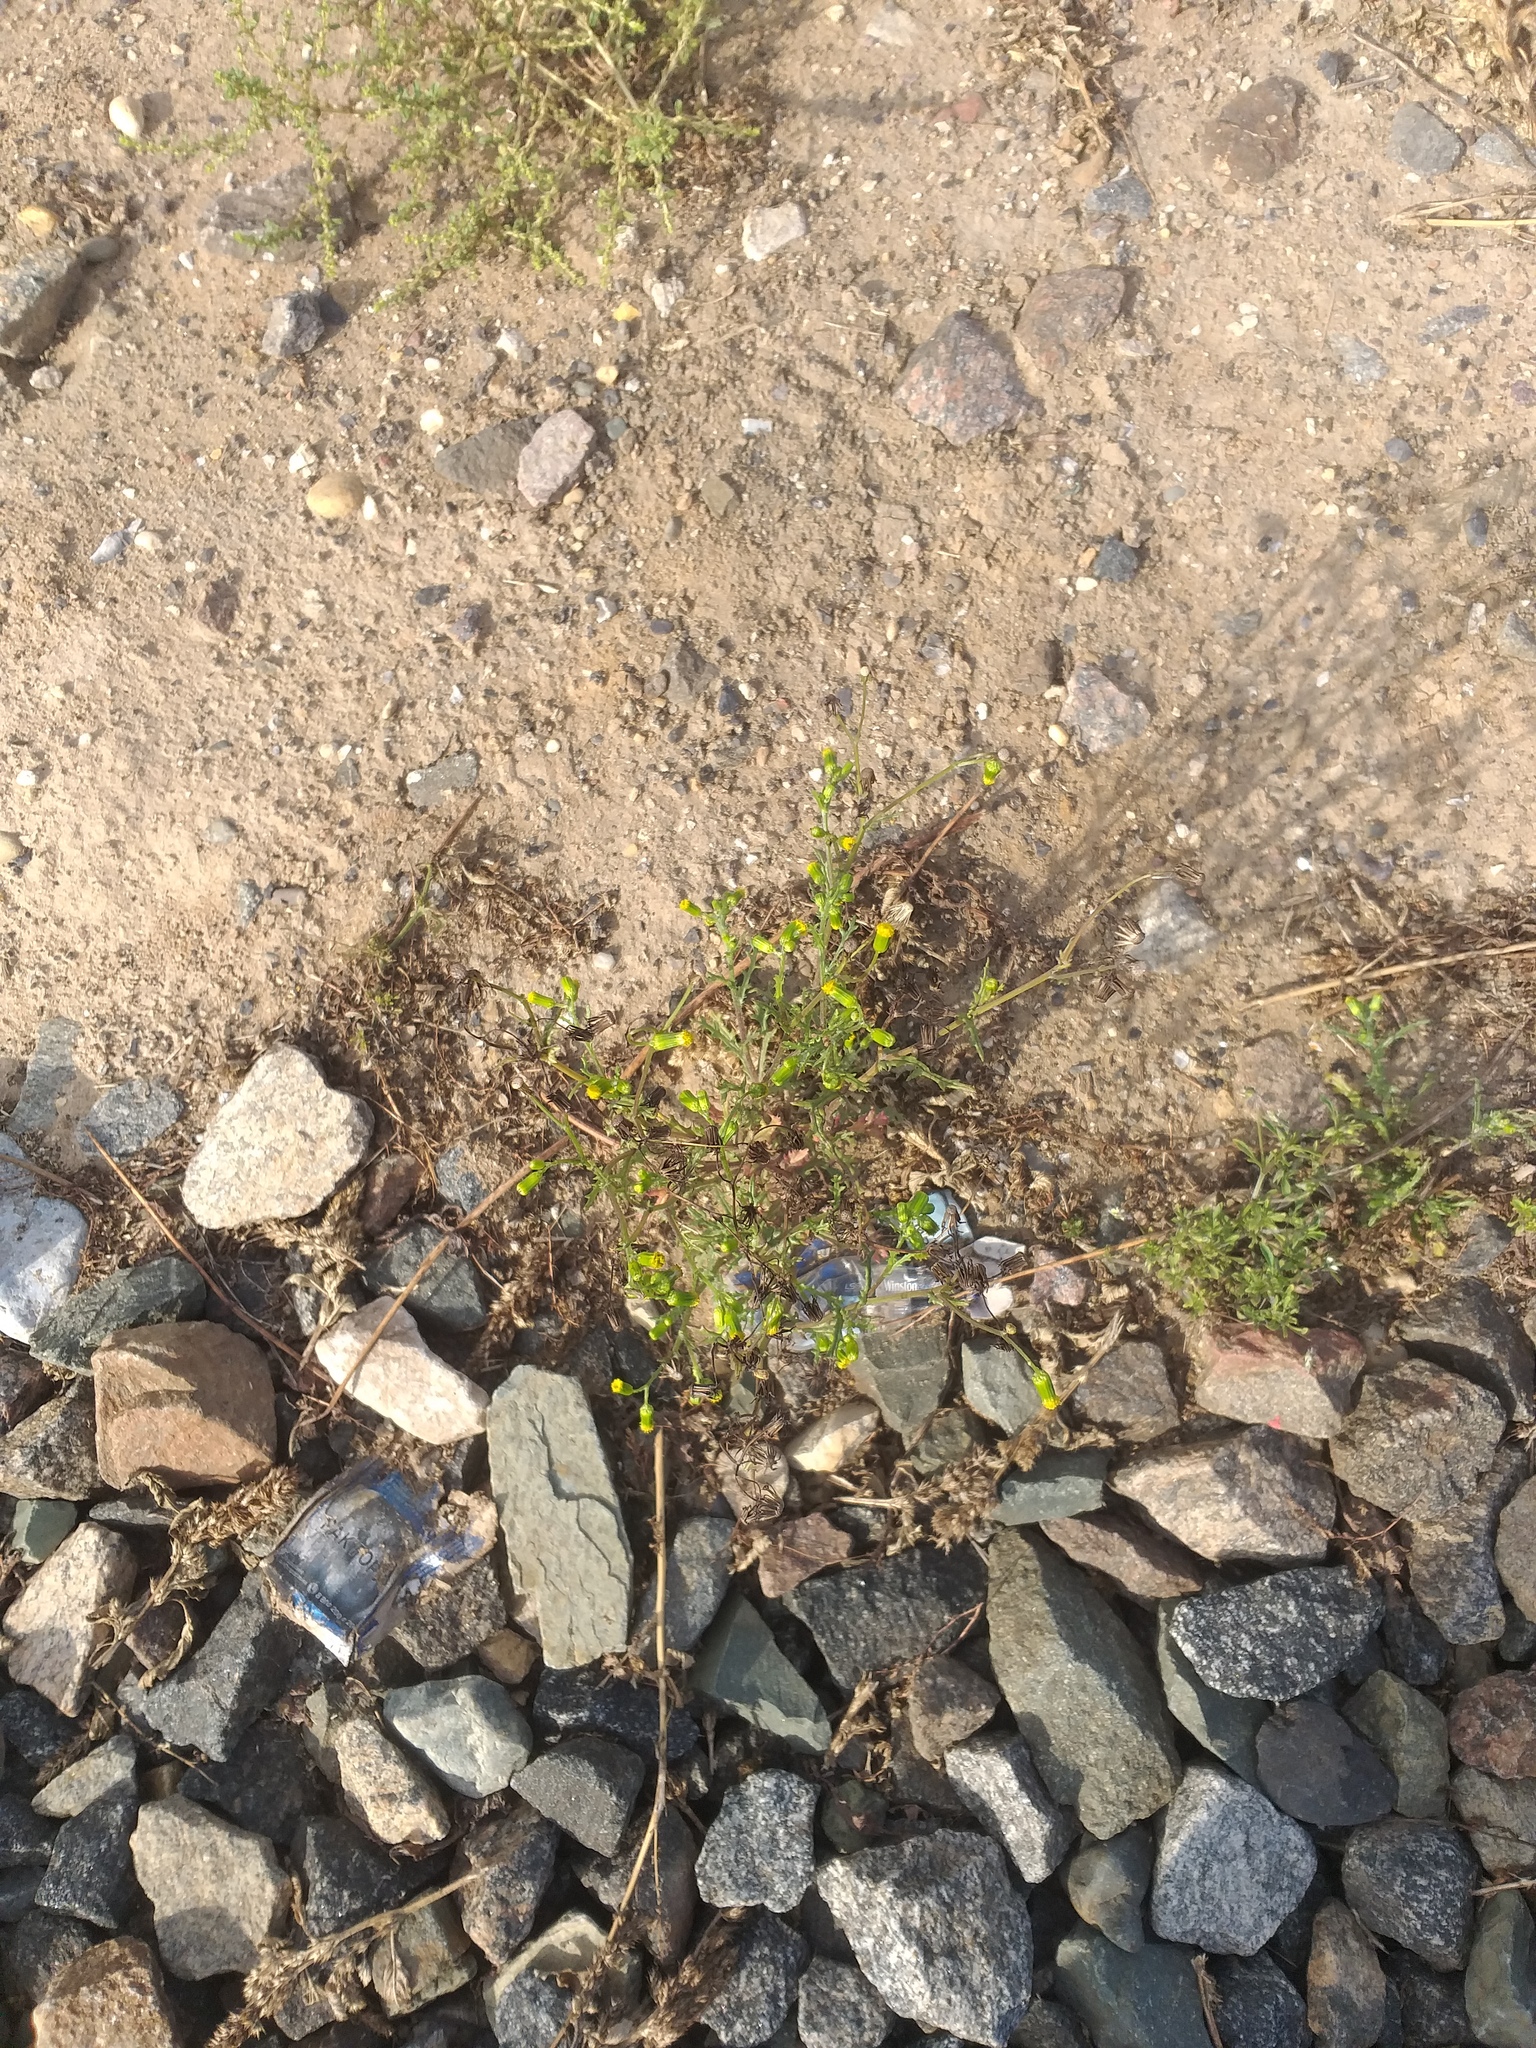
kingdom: Plantae
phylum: Tracheophyta
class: Magnoliopsida
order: Asterales
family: Asteraceae
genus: Senecio
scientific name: Senecio vulgaris
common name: Old-man-in-the-spring
